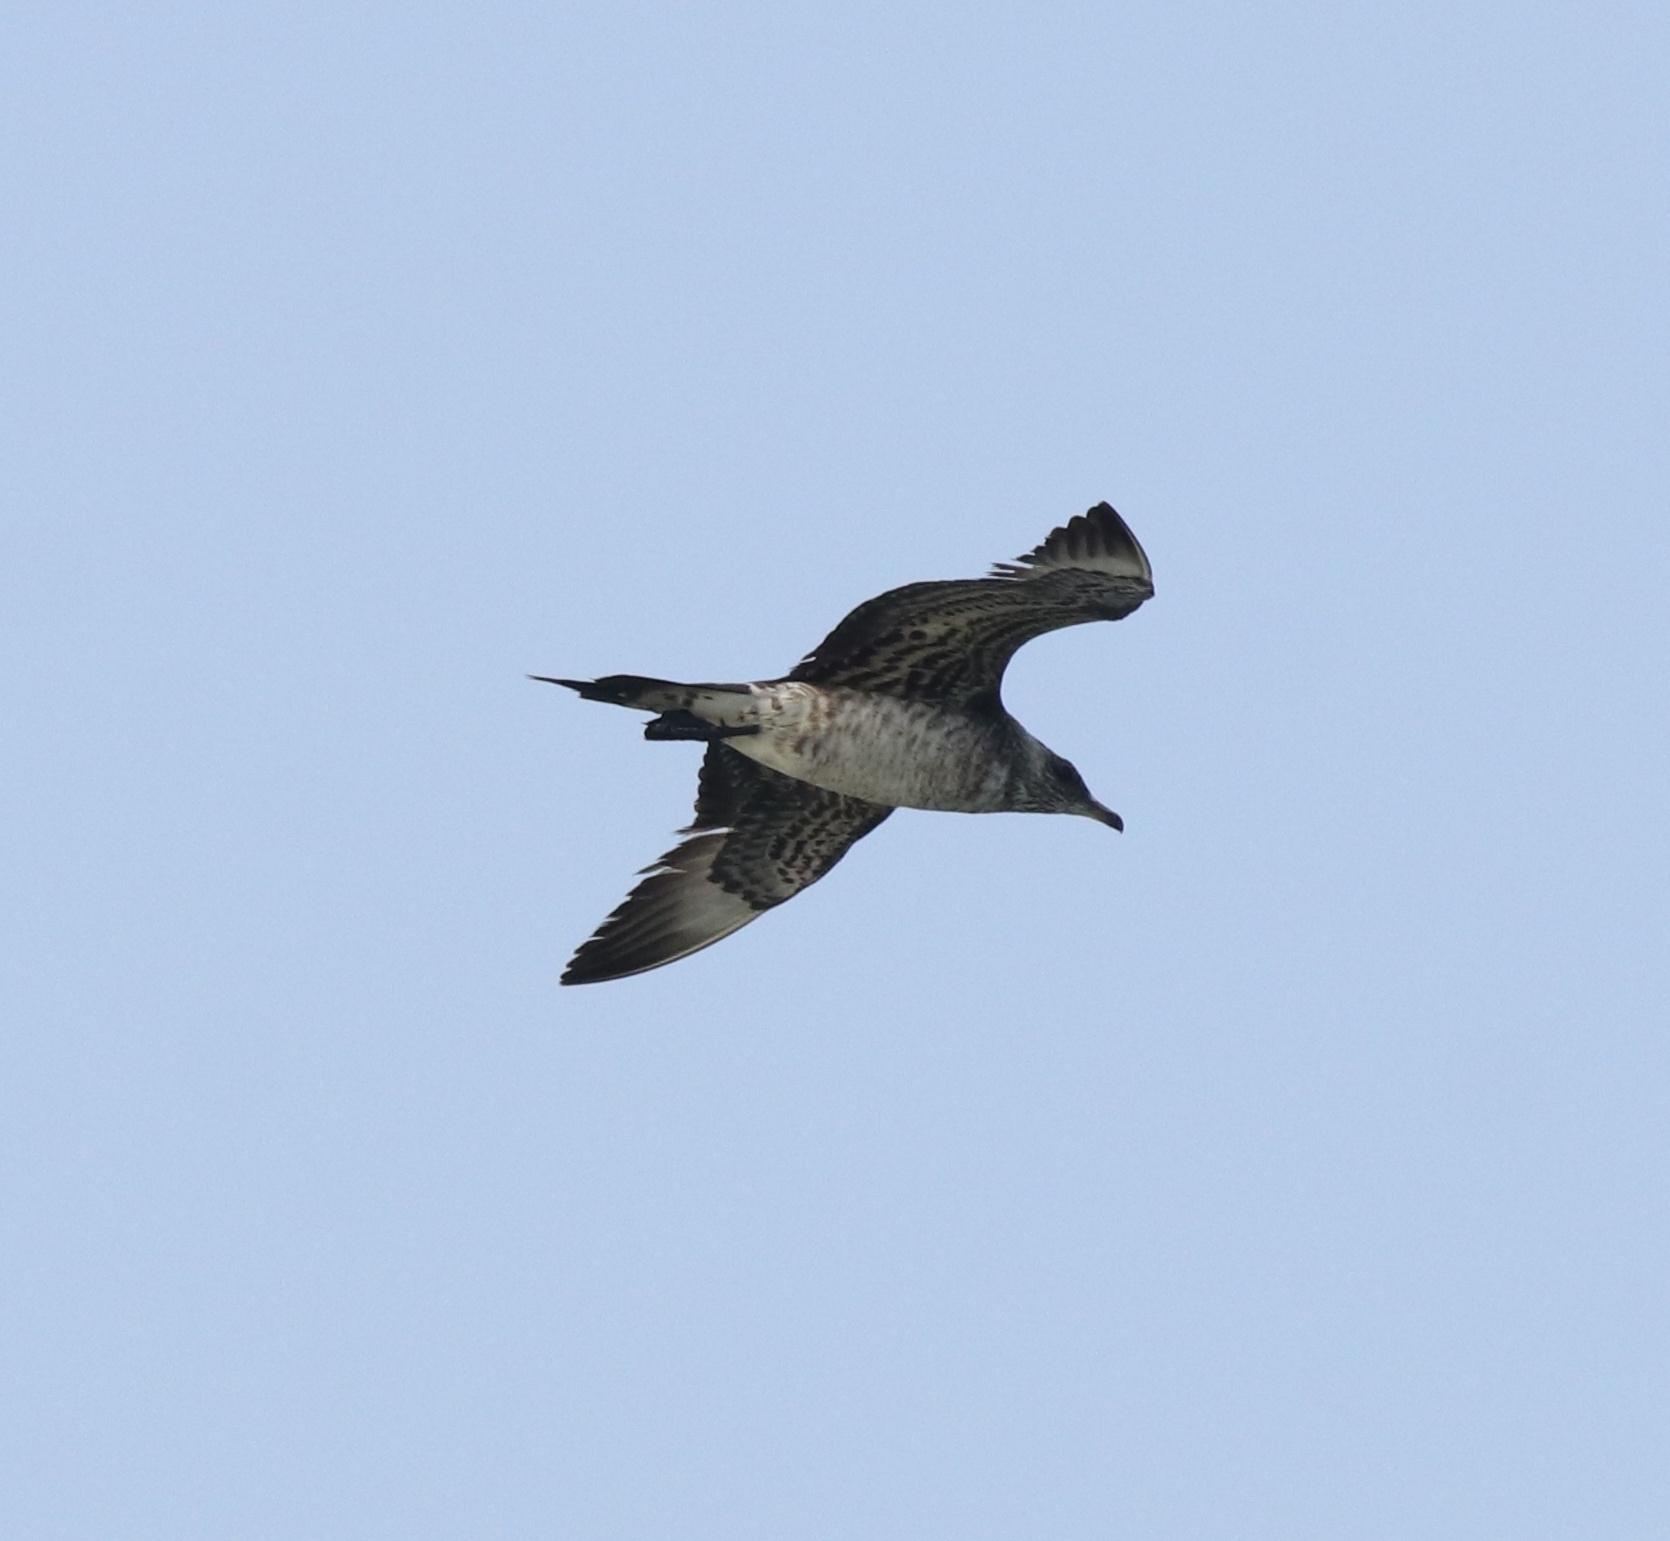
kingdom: Animalia
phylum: Chordata
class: Aves
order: Charadriiformes
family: Stercorariidae
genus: Stercorarius
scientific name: Stercorarius parasiticus
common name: Parasitic jaeger
